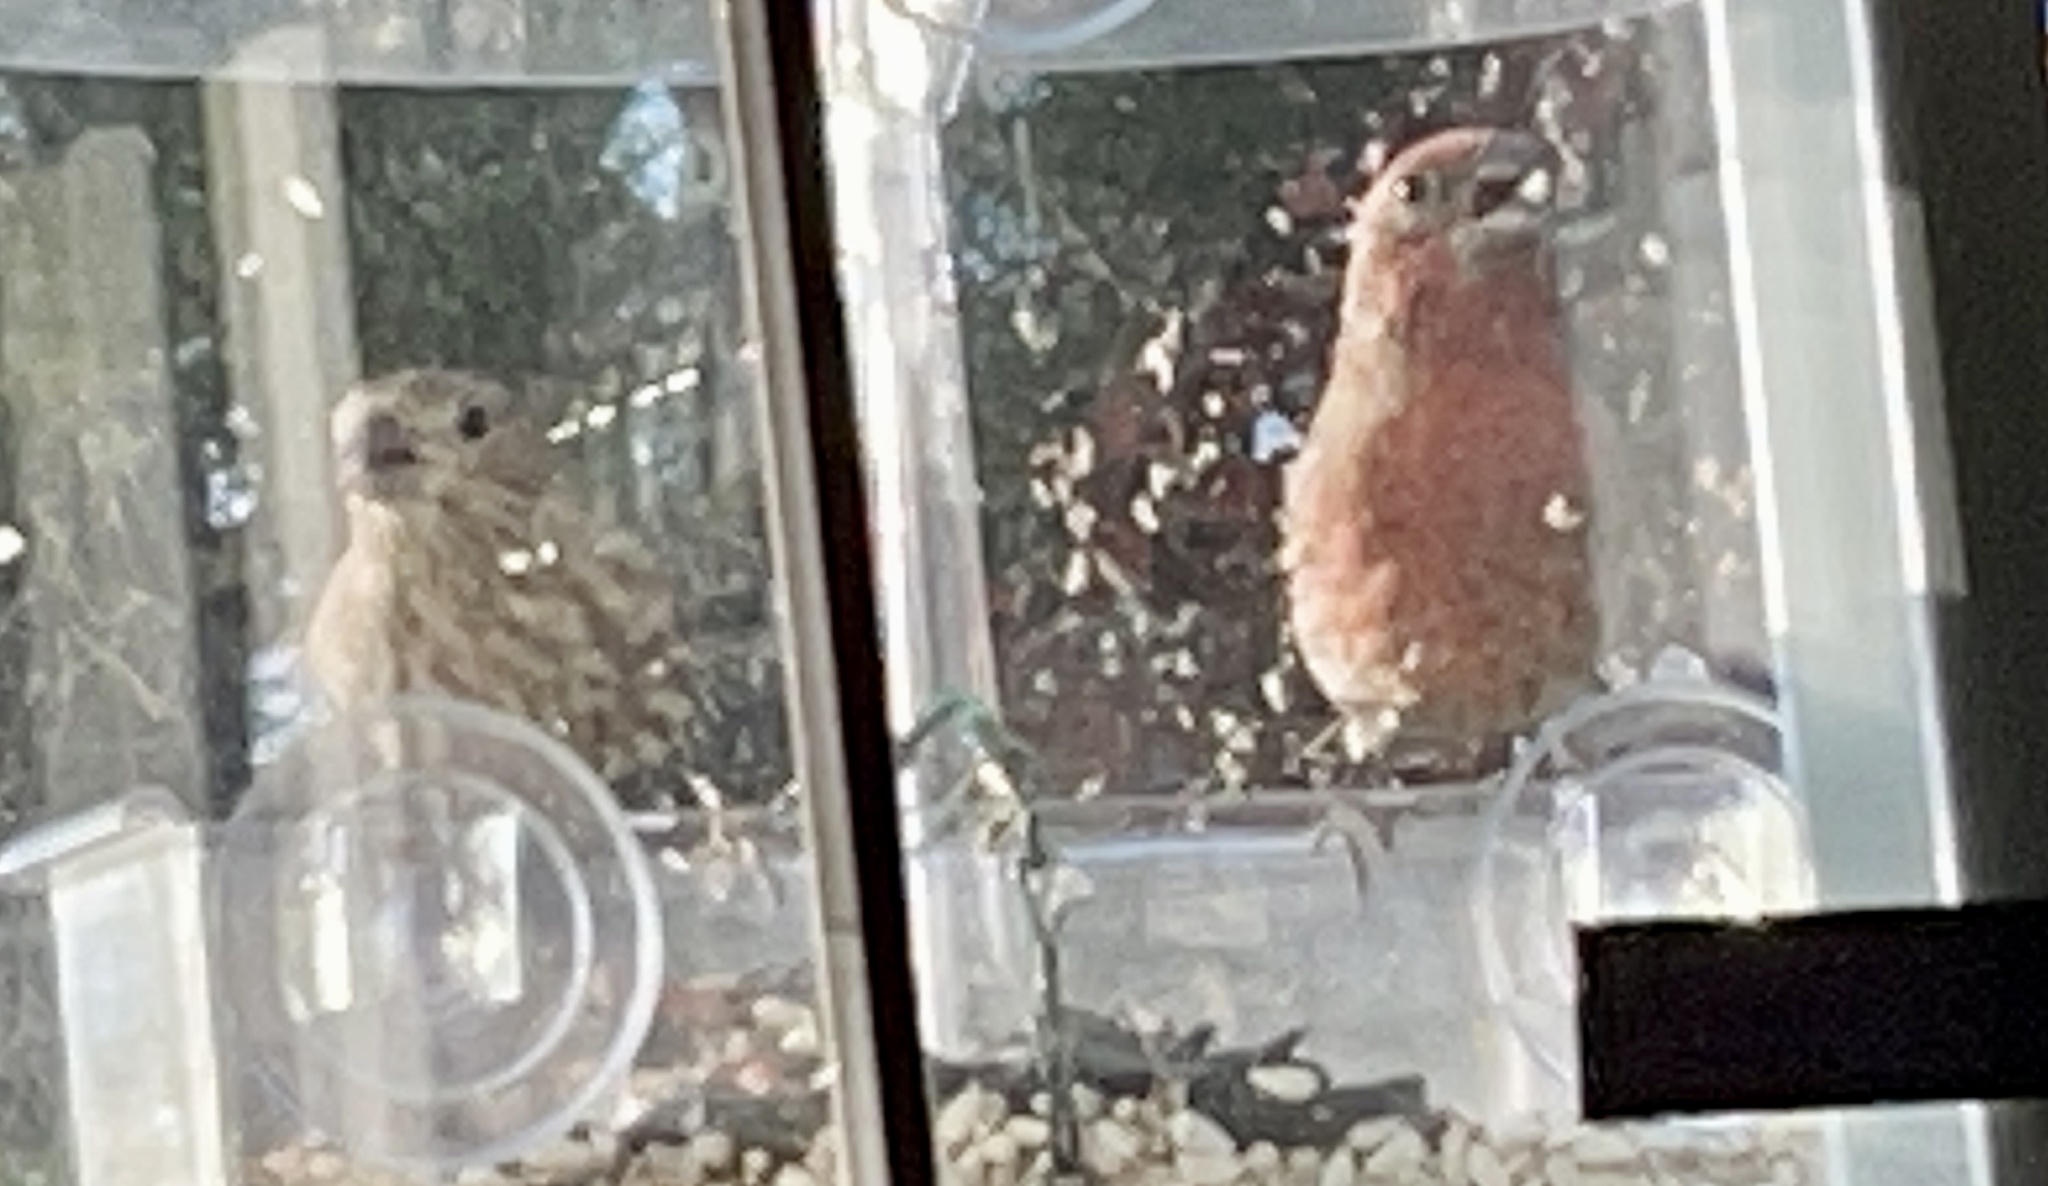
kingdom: Animalia
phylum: Chordata
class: Aves
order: Passeriformes
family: Fringillidae
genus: Haemorhous
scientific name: Haemorhous mexicanus
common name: House finch
